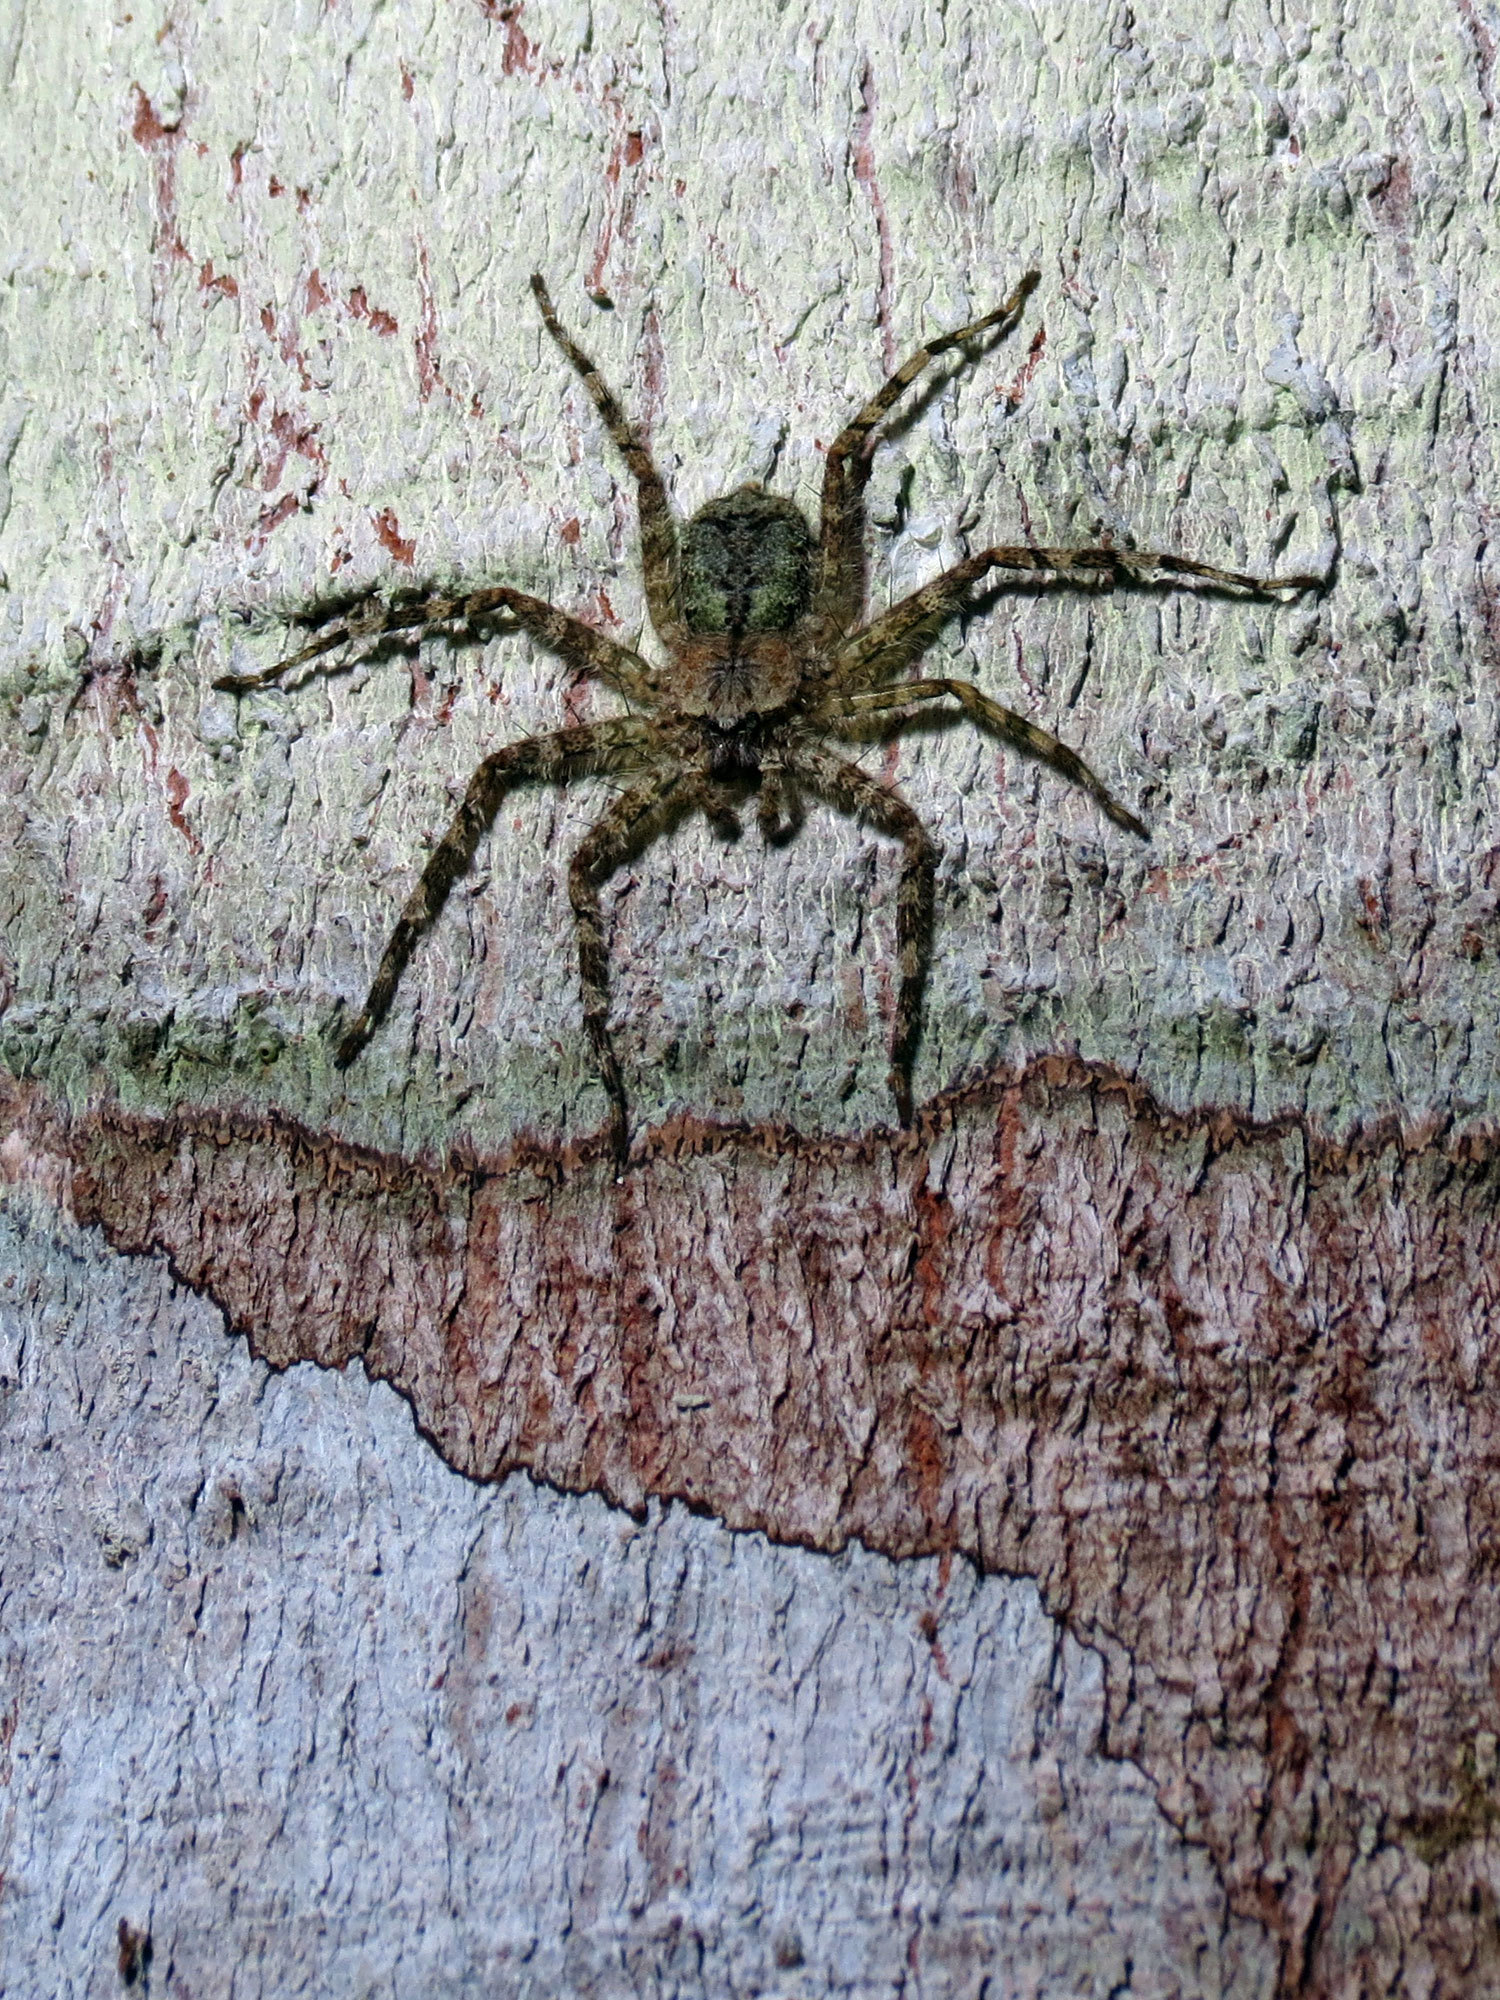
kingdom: Animalia
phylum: Arthropoda
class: Arachnida
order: Araneae
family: Selenopidae
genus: Selenops
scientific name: Selenops banksi
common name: Wall crab spiders
